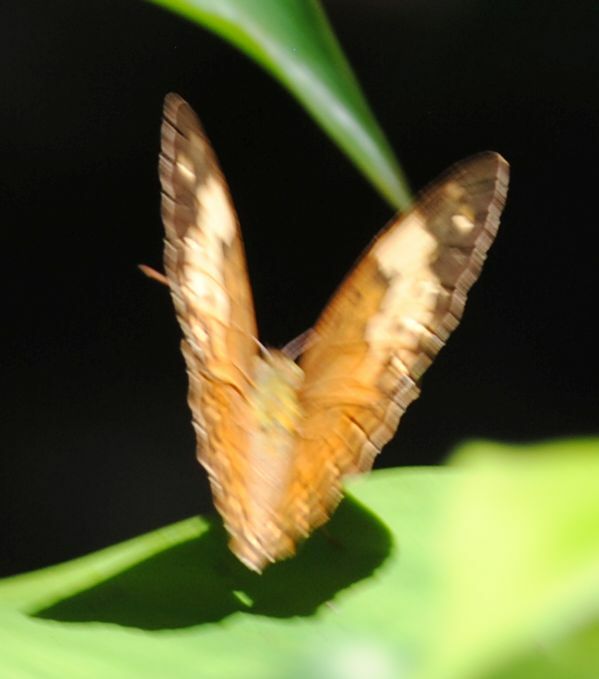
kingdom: Animalia
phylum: Arthropoda
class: Insecta
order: Lepidoptera
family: Nymphalidae
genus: Cupha
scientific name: Cupha erymanthis
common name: Rustic
